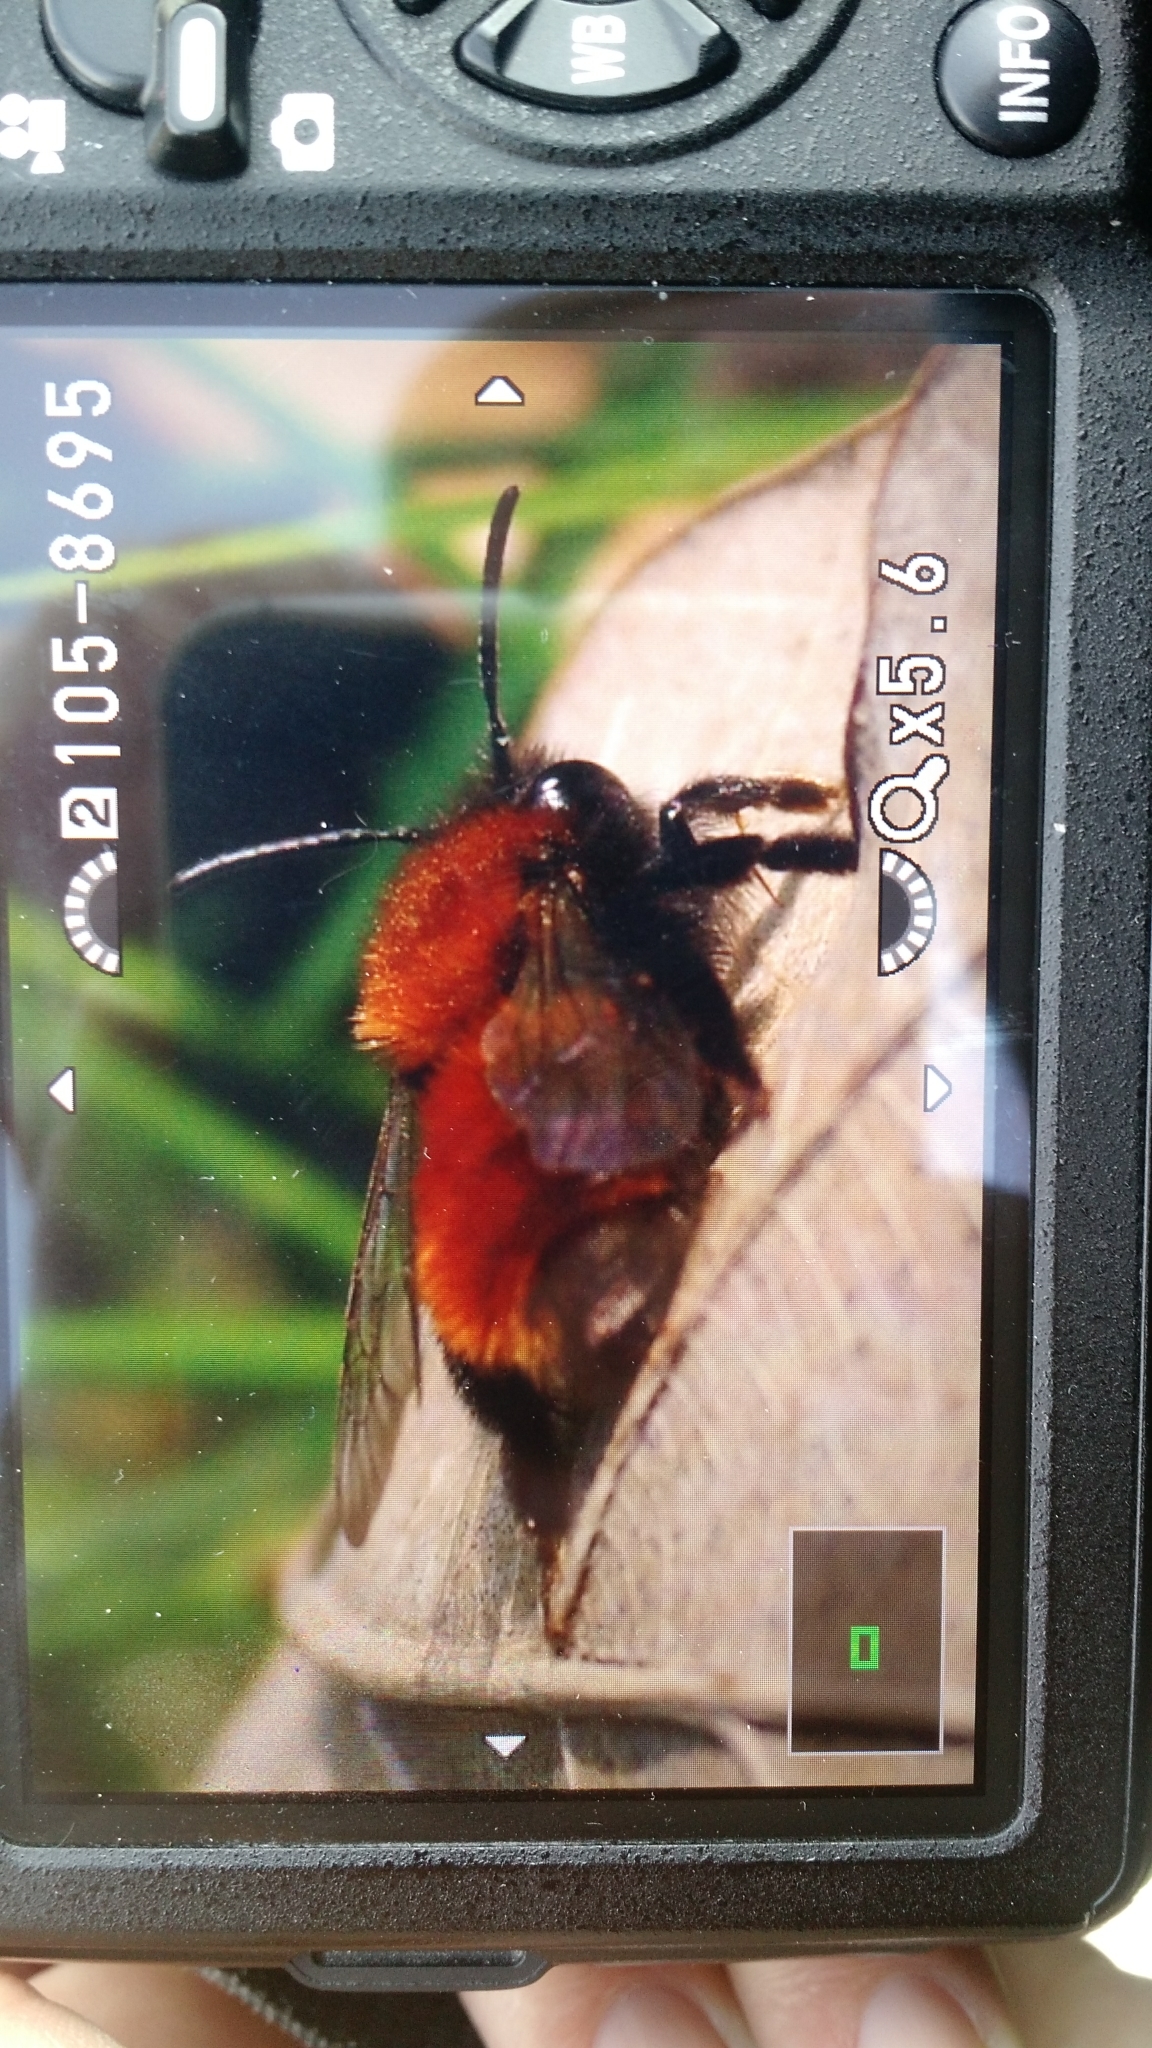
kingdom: Animalia
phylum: Arthropoda
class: Insecta
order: Hymenoptera
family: Andrenidae
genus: Andrena
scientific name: Andrena fulva
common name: Tawny mining bee
